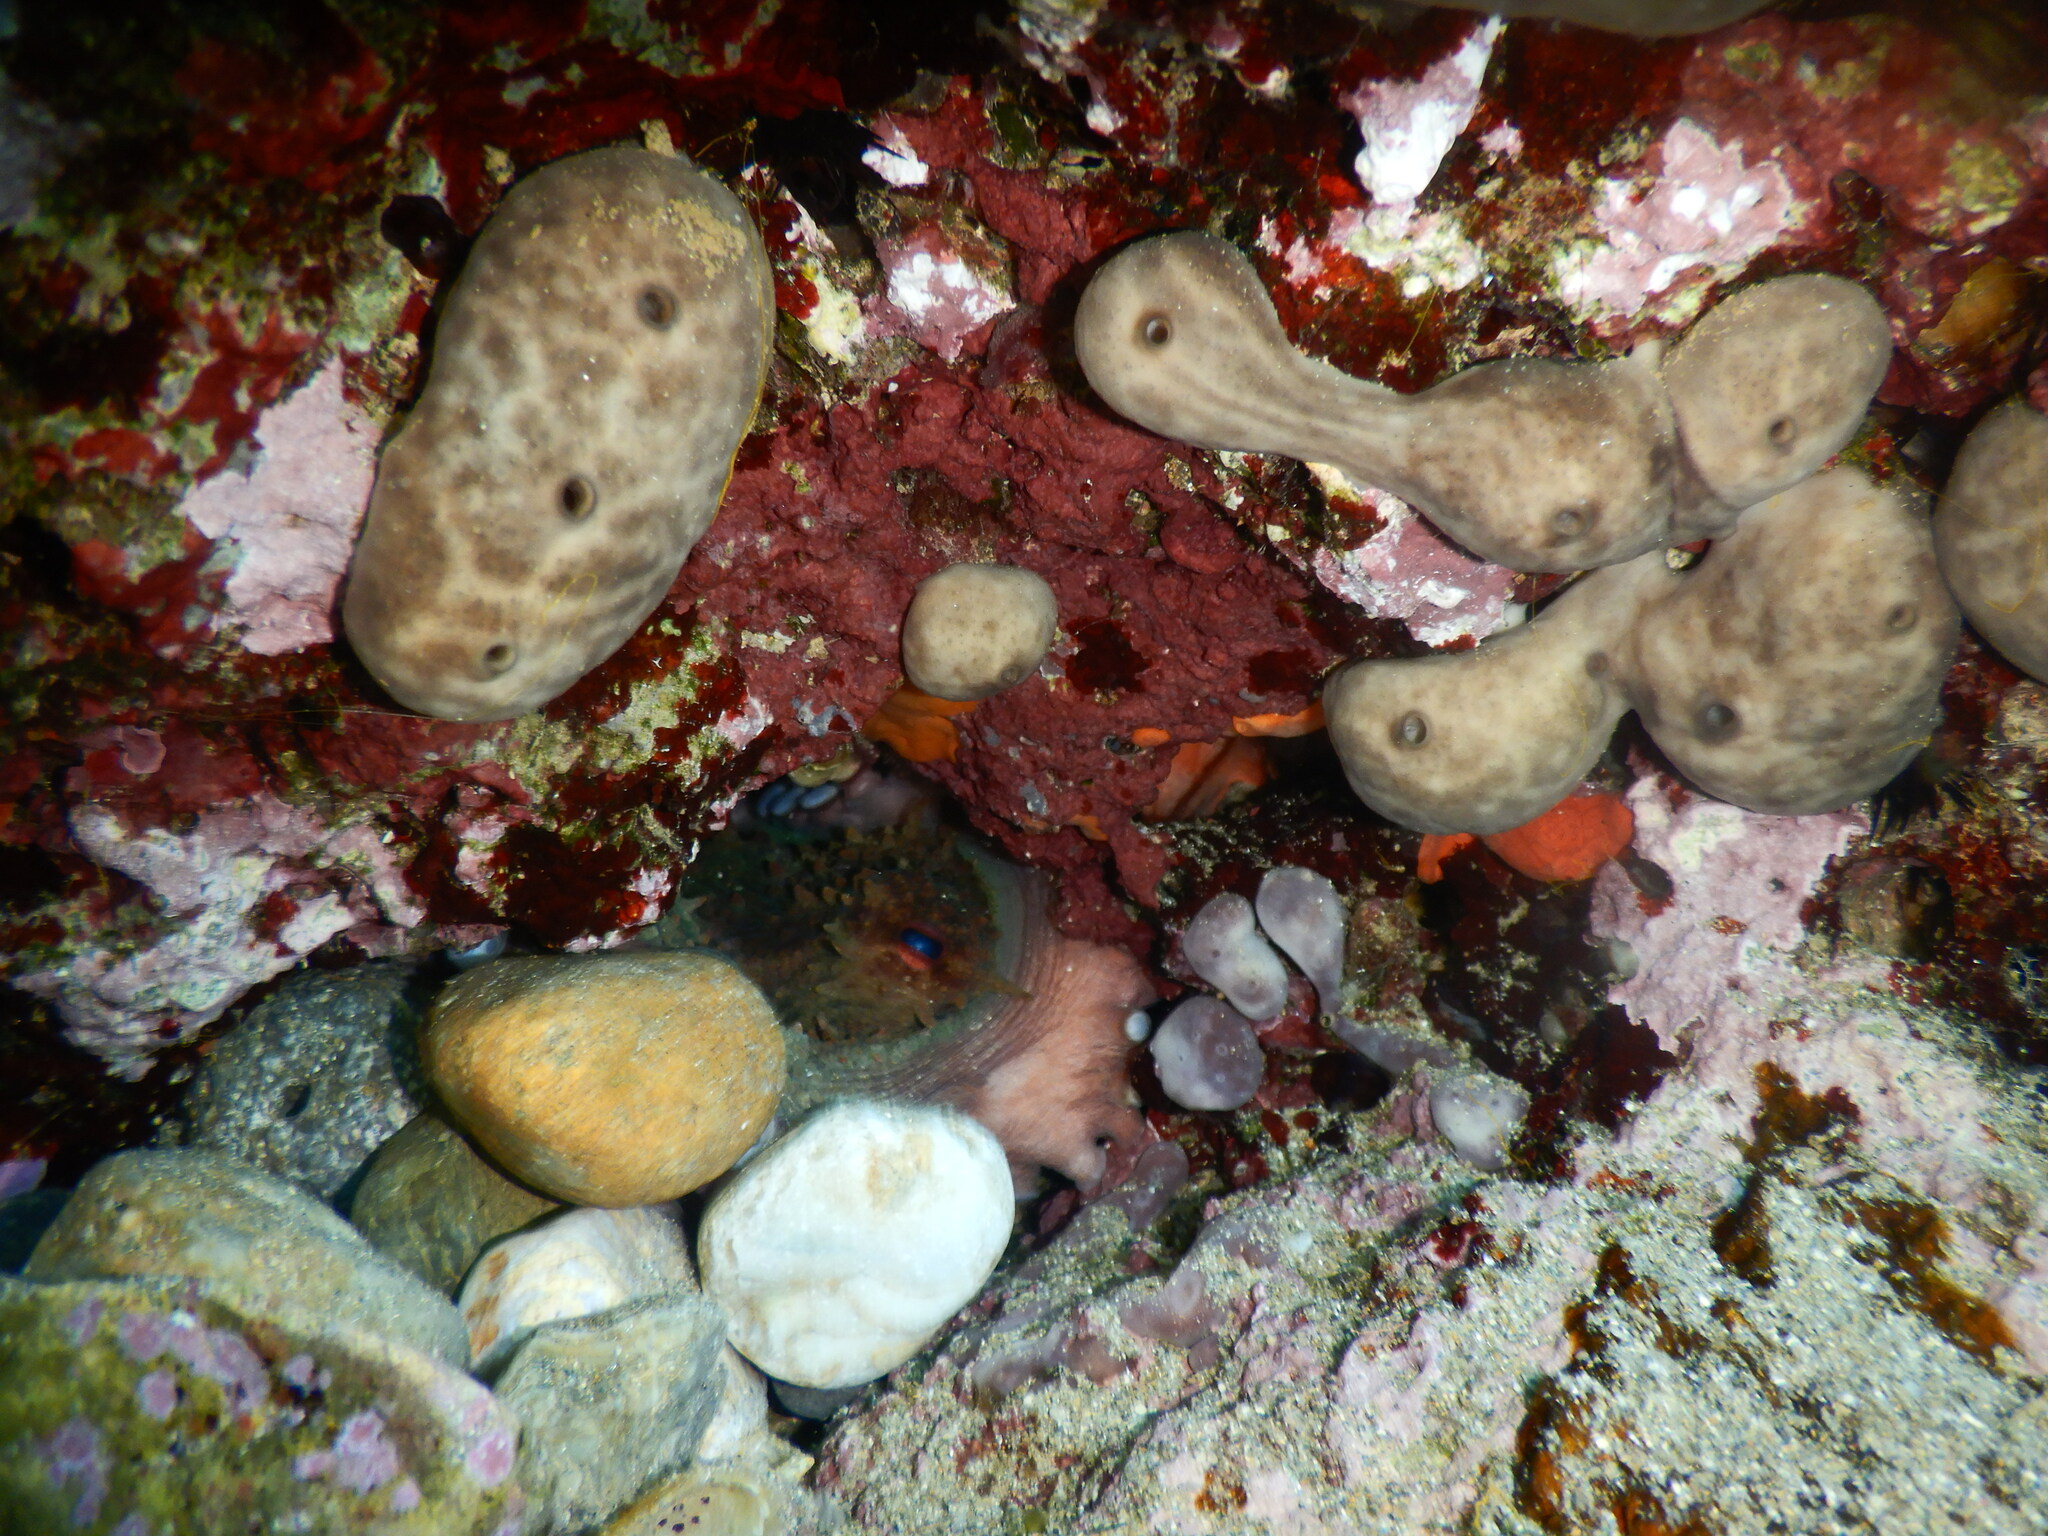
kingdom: Animalia
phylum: Mollusca
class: Cephalopoda
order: Octopoda
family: Octopodidae
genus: Octopus
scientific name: Octopus vulgaris
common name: Common octopus
